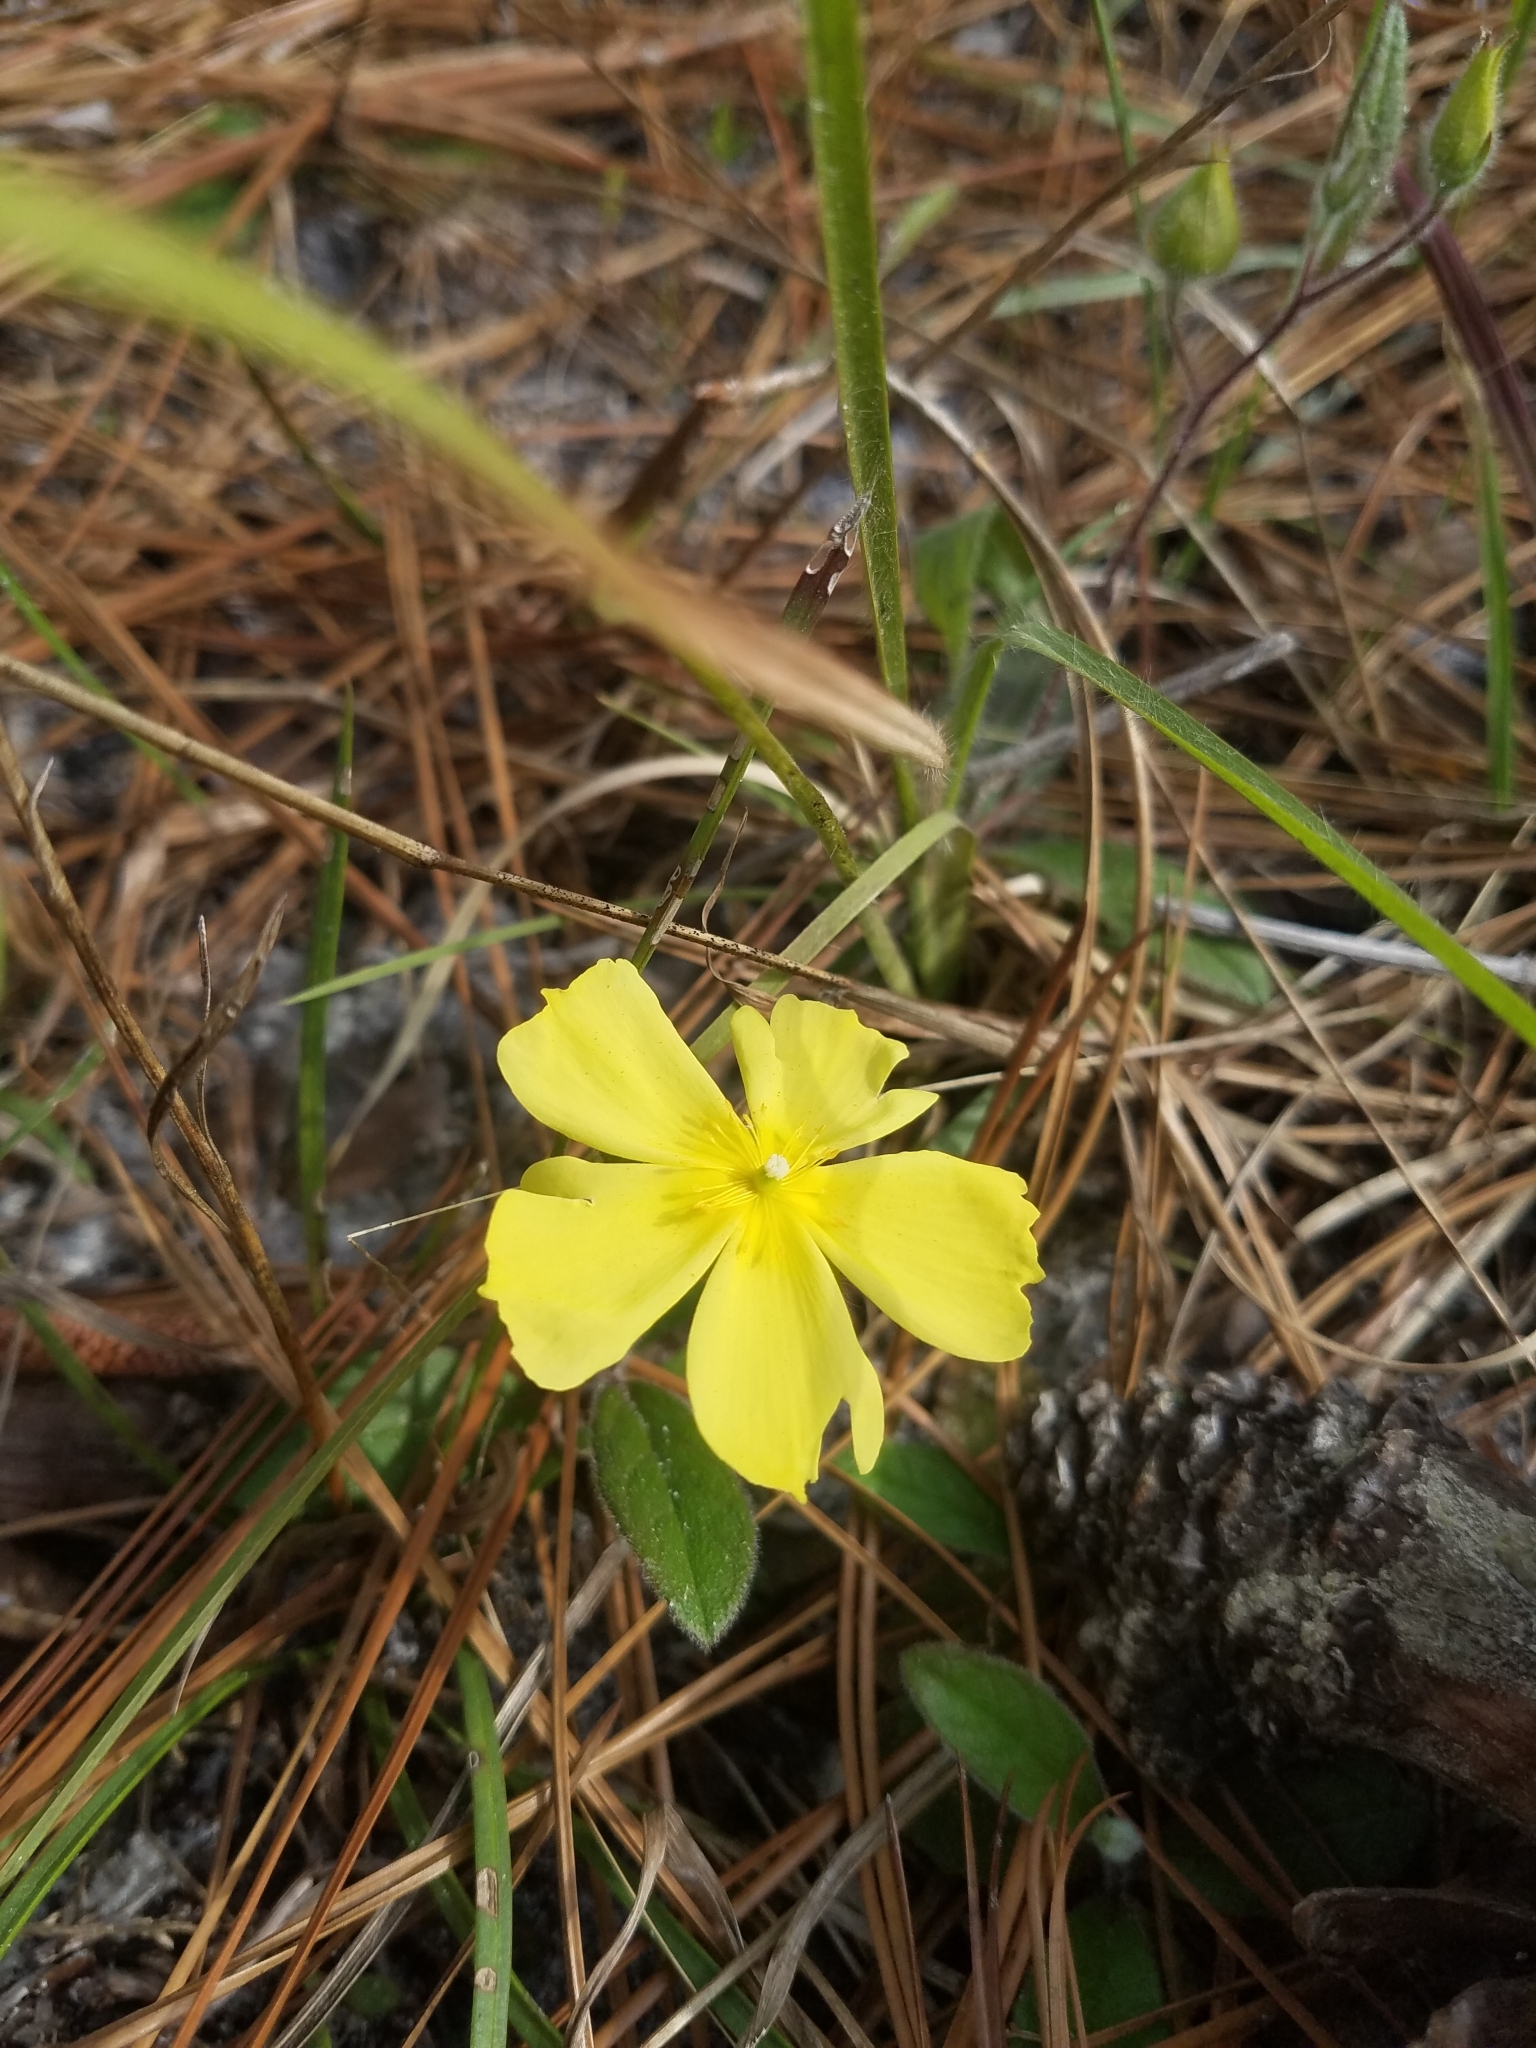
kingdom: Plantae
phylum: Tracheophyta
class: Magnoliopsida
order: Malvales
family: Cistaceae
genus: Crocanthemum
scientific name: Crocanthemum carolinianum
